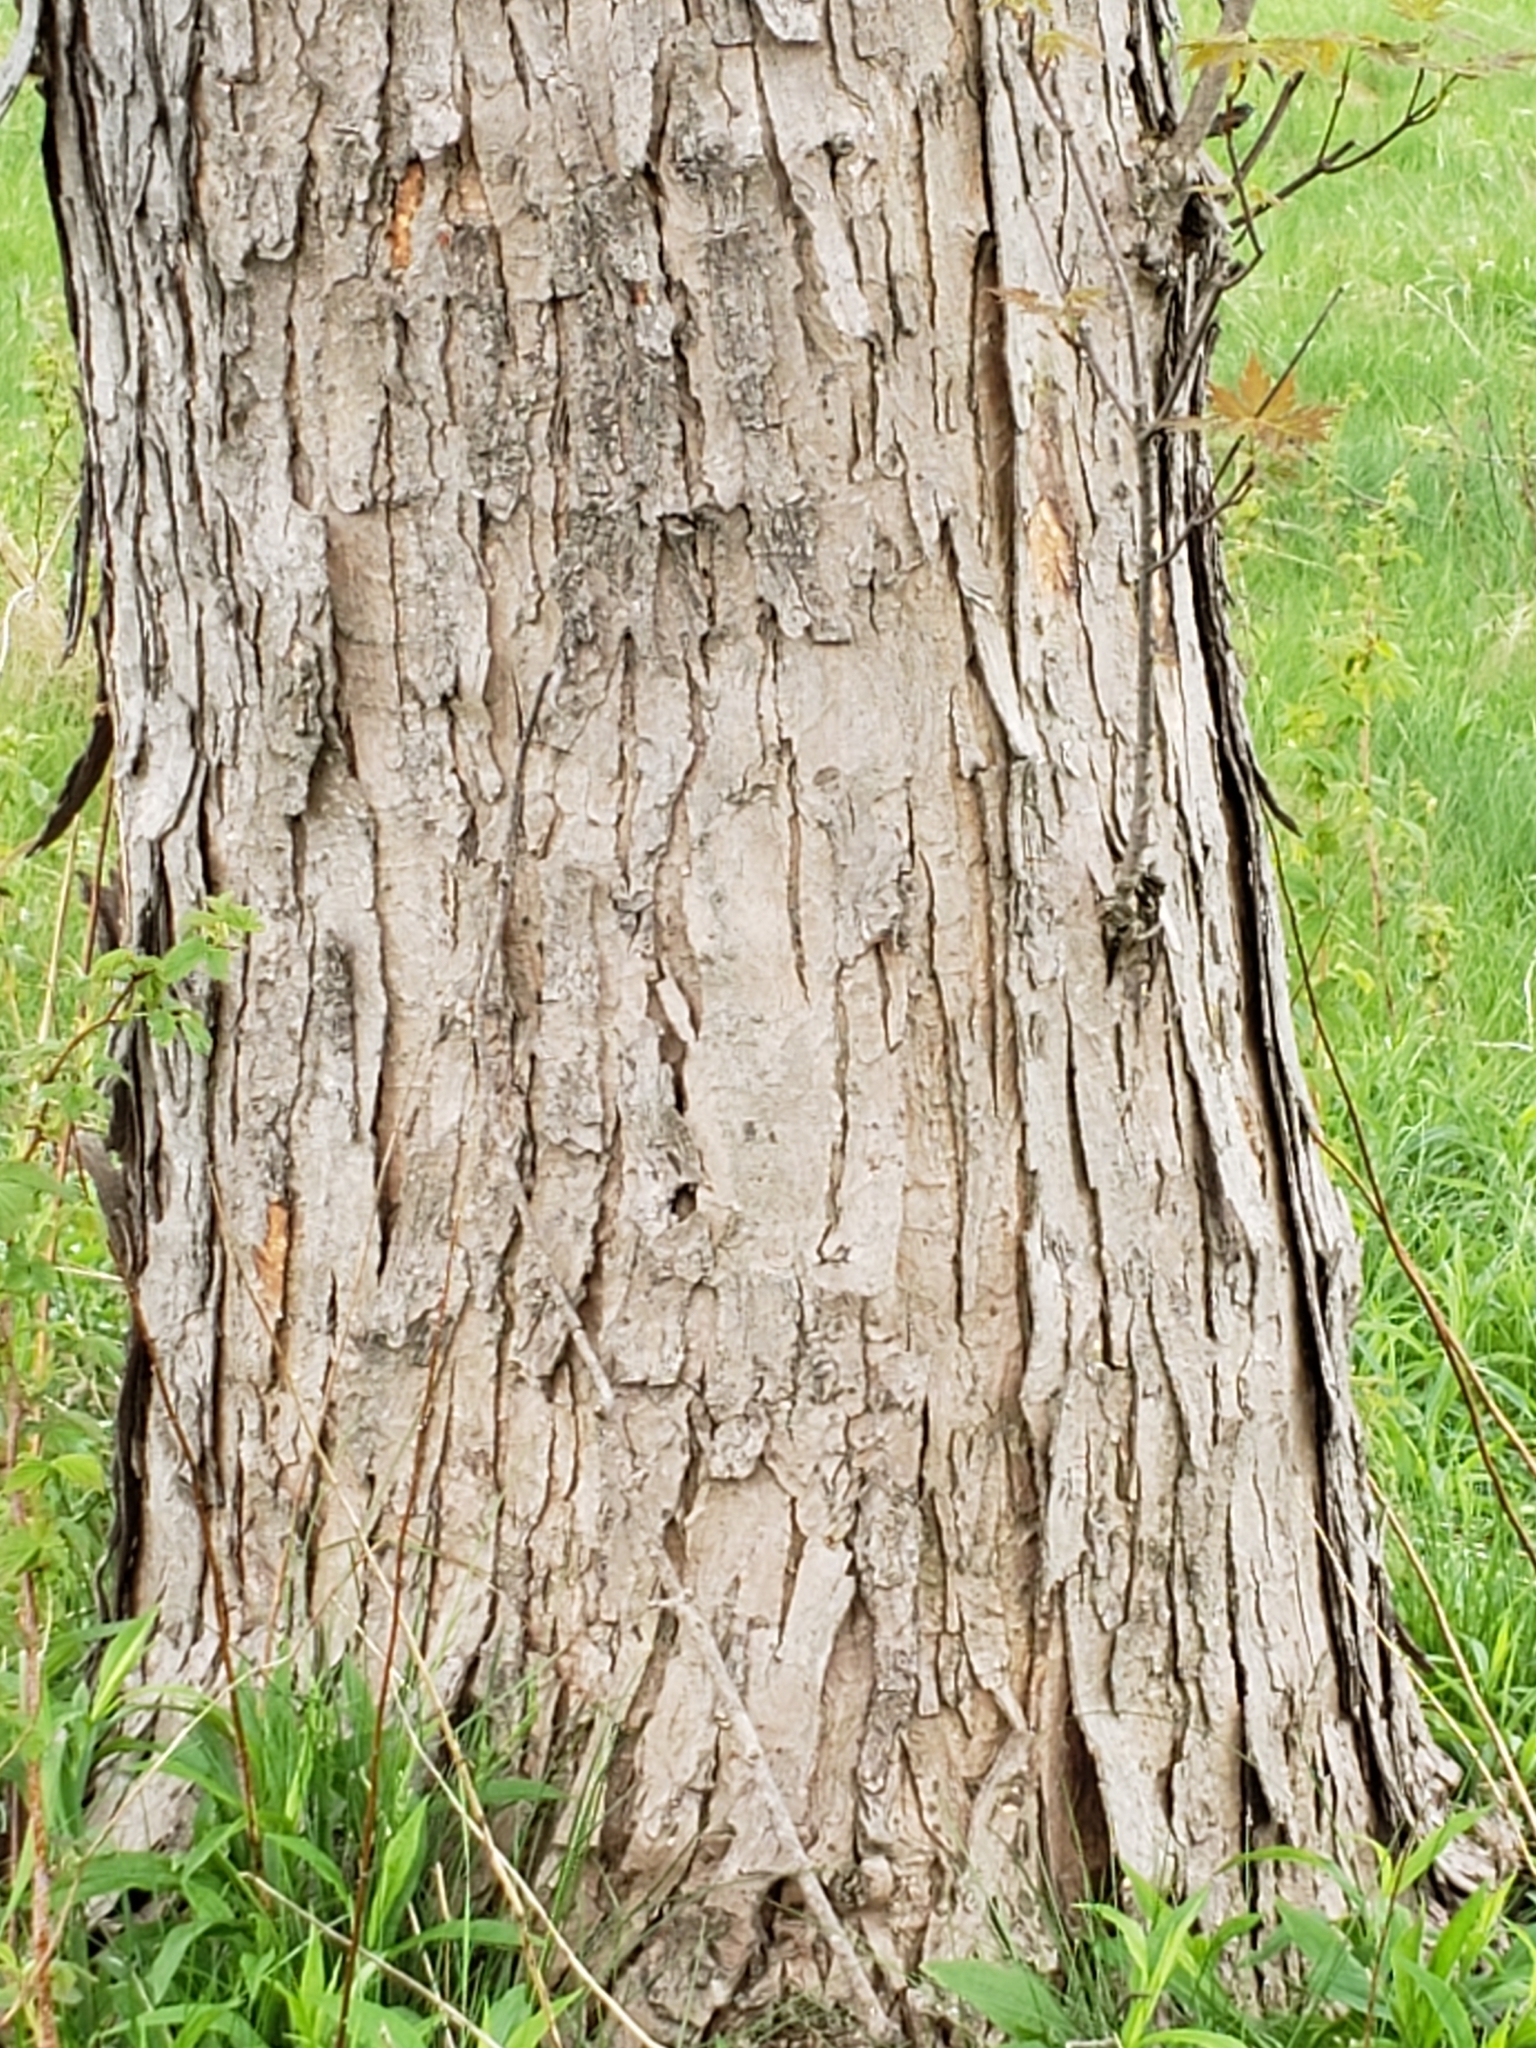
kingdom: Plantae
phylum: Tracheophyta
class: Magnoliopsida
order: Sapindales
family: Sapindaceae
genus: Acer
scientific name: Acer saccharinum
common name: Silver maple
